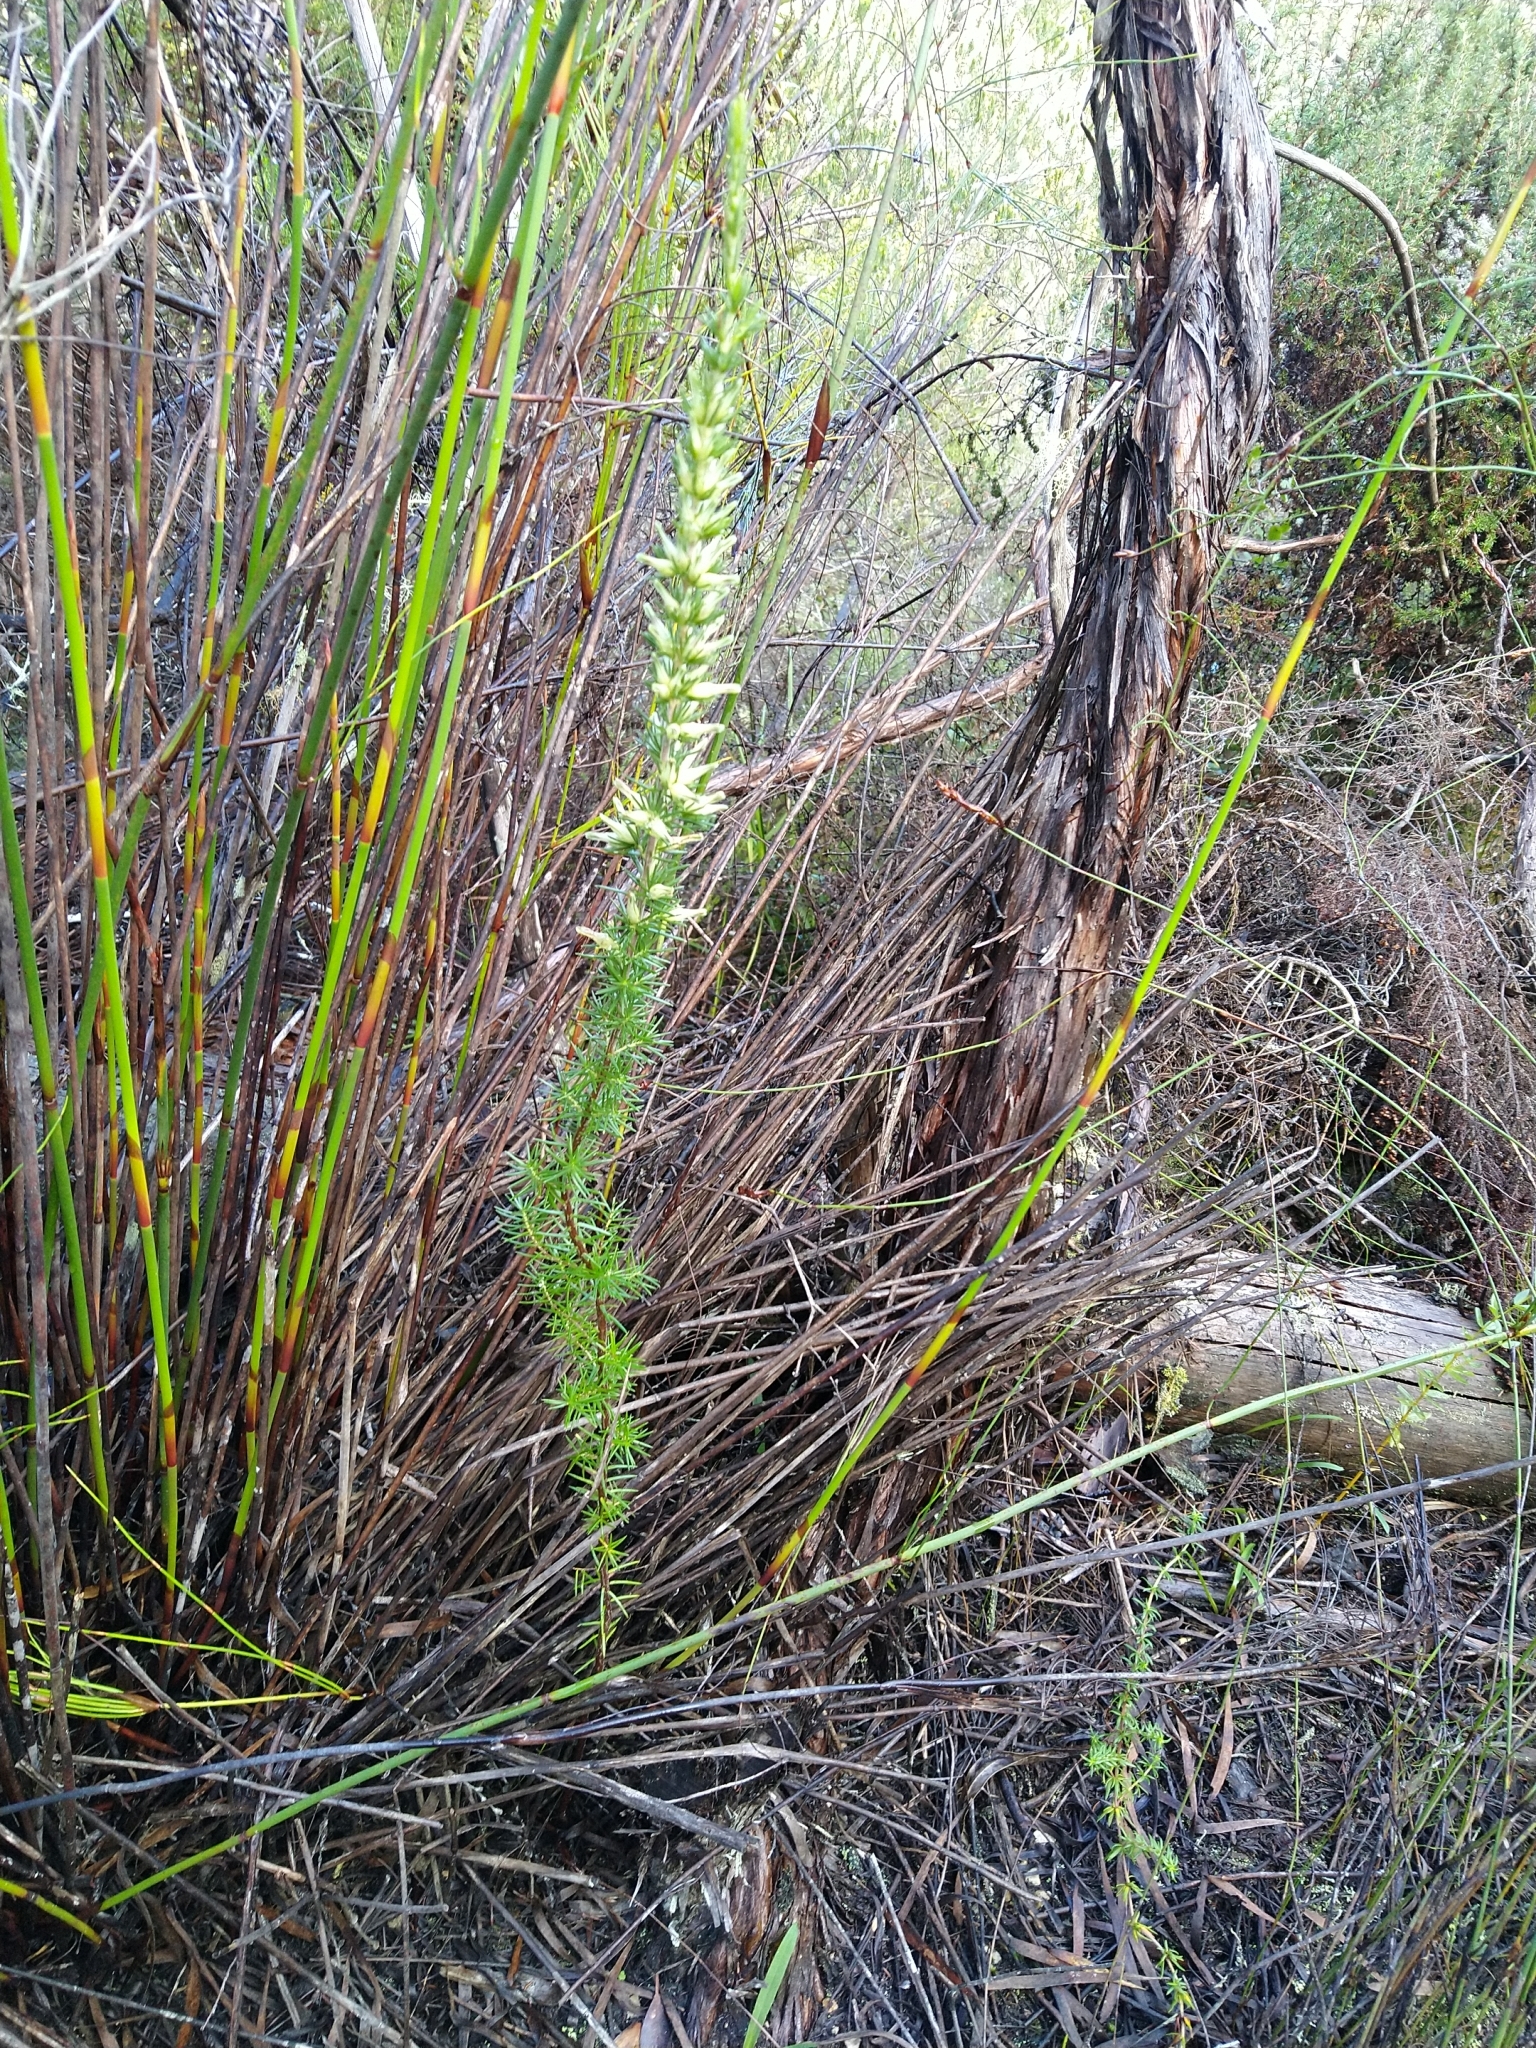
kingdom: Plantae
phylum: Tracheophyta
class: Magnoliopsida
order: Ericales
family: Ericaceae
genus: Erica
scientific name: Erica nabea
